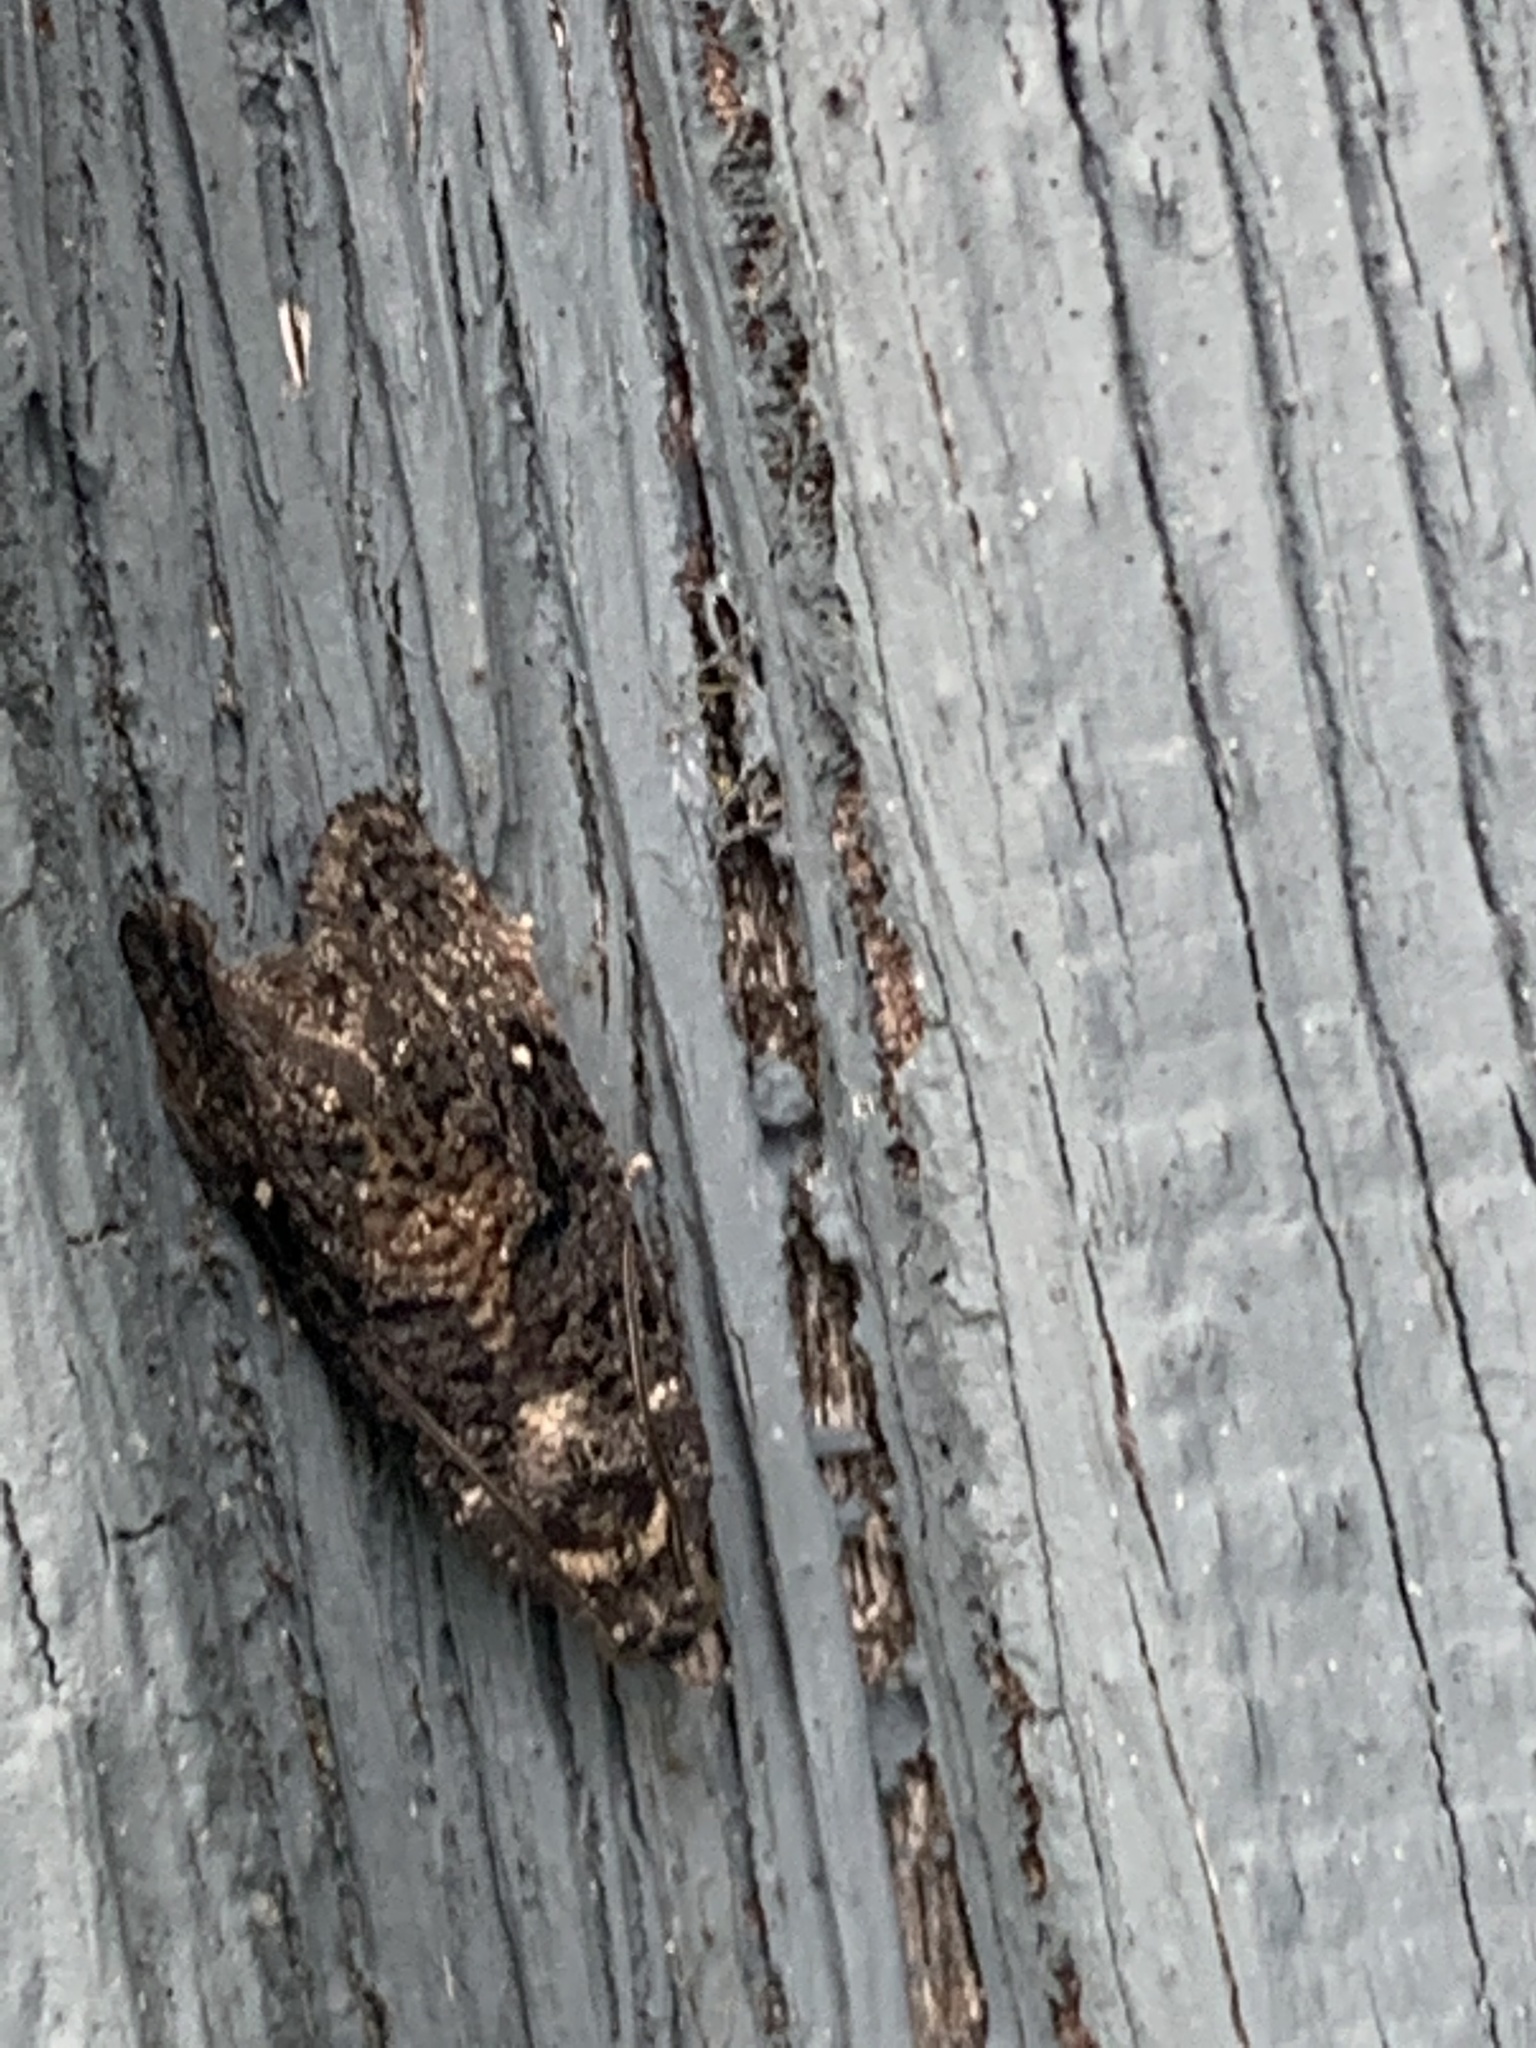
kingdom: Animalia
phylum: Arthropoda
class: Insecta
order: Lepidoptera
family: Tortricidae
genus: Gymnandrosoma
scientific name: Gymnandrosoma punctidiscanum
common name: Dotted ecdytolopha moth
